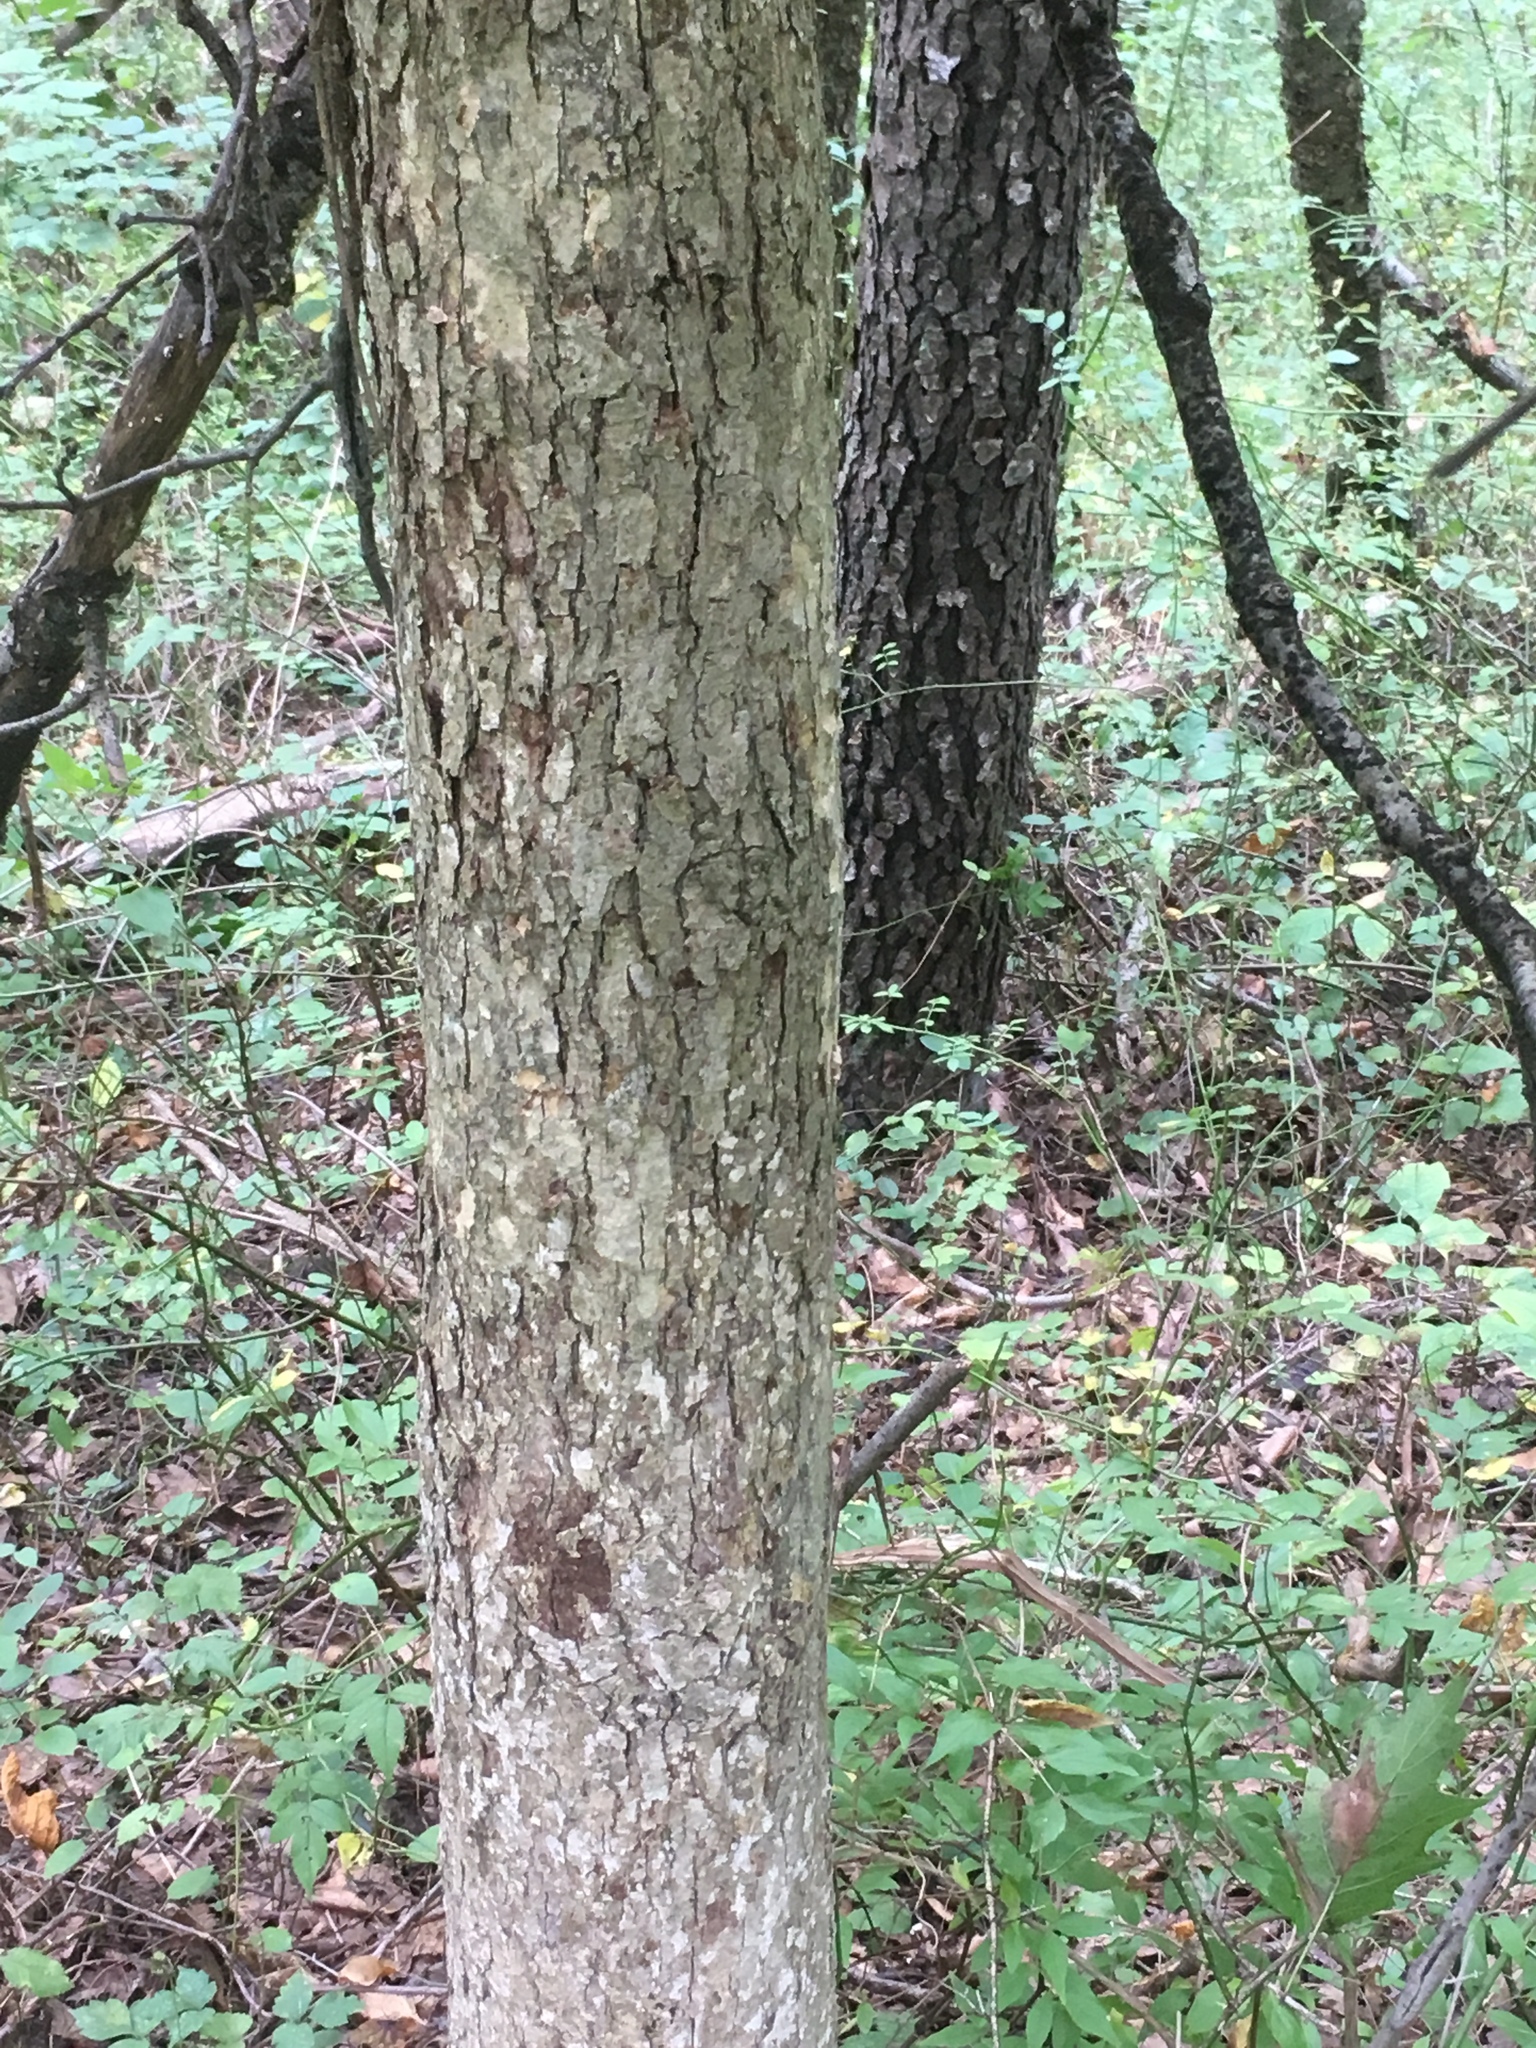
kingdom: Plantae
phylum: Tracheophyta
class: Magnoliopsida
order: Fagales
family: Fagaceae
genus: Quercus
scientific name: Quercus alba
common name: White oak
